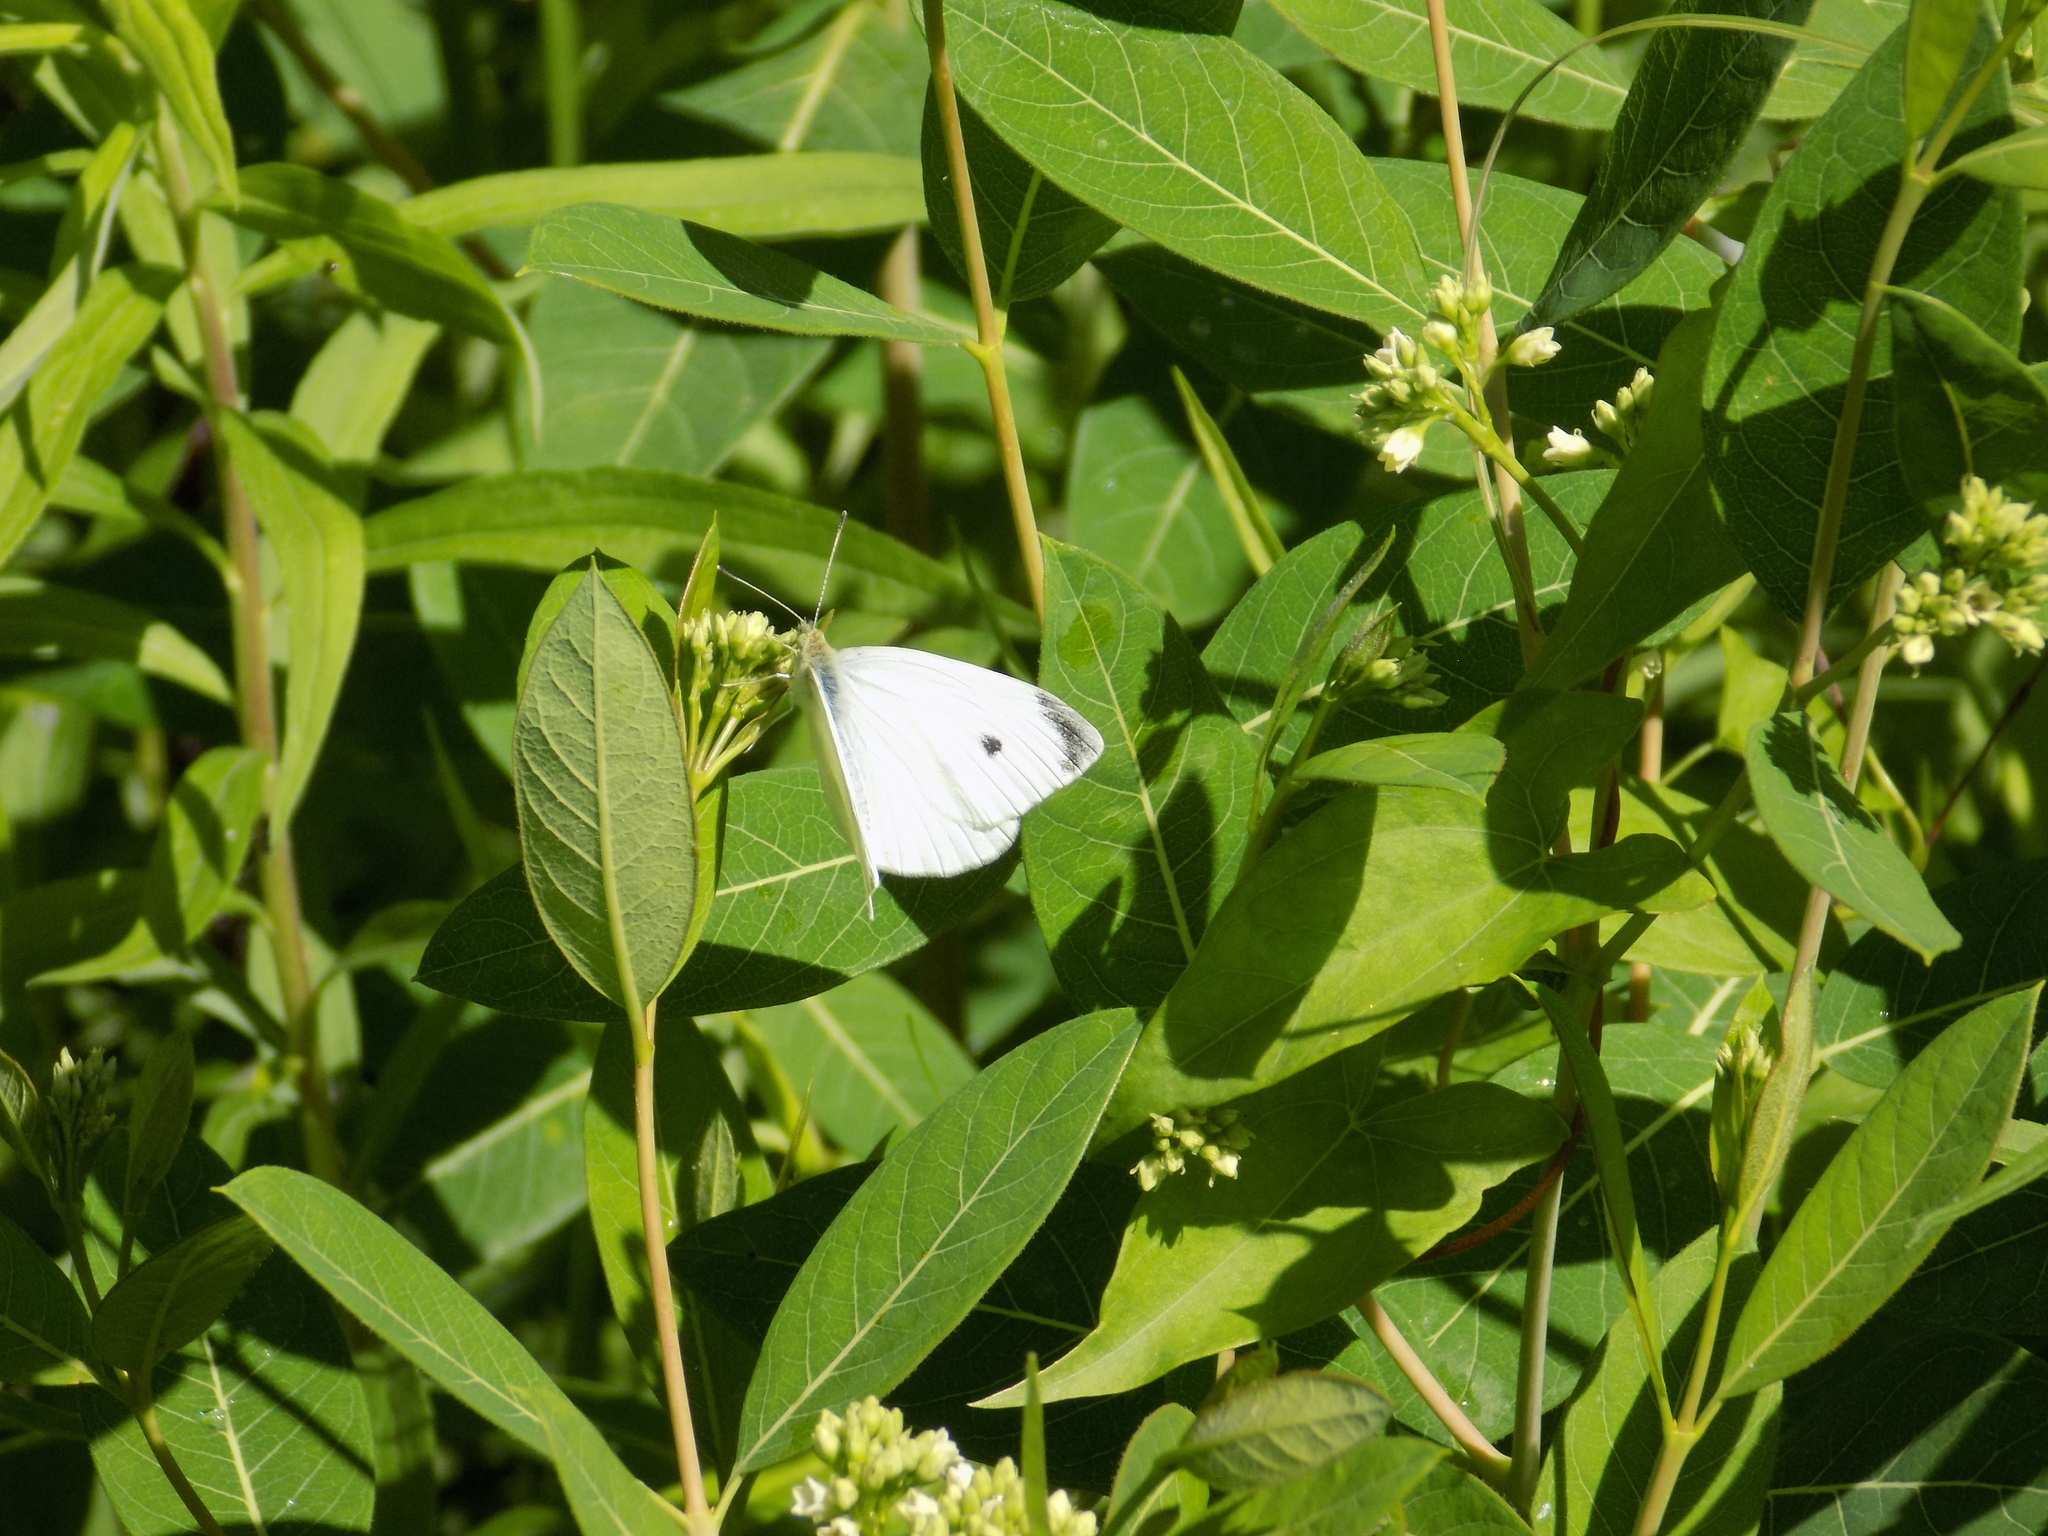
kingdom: Animalia
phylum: Arthropoda
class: Insecta
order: Lepidoptera
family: Pieridae
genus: Pieris
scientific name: Pieris rapae
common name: Small white
